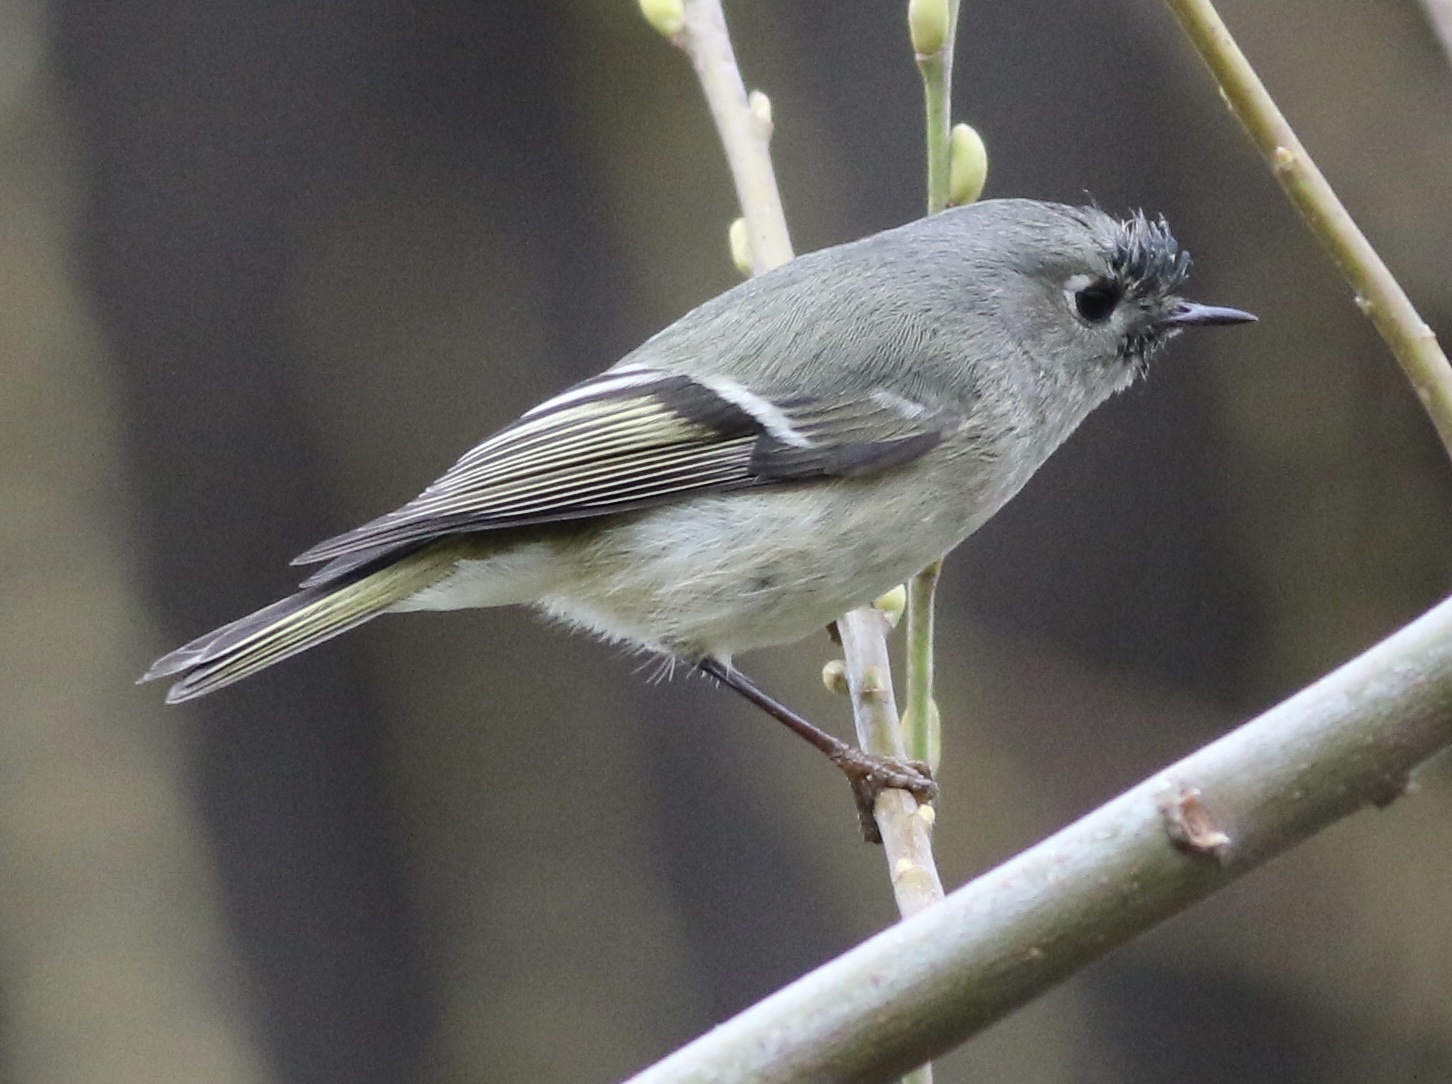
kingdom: Animalia
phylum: Chordata
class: Aves
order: Passeriformes
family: Regulidae
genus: Regulus
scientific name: Regulus calendula
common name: Ruby-crowned kinglet
